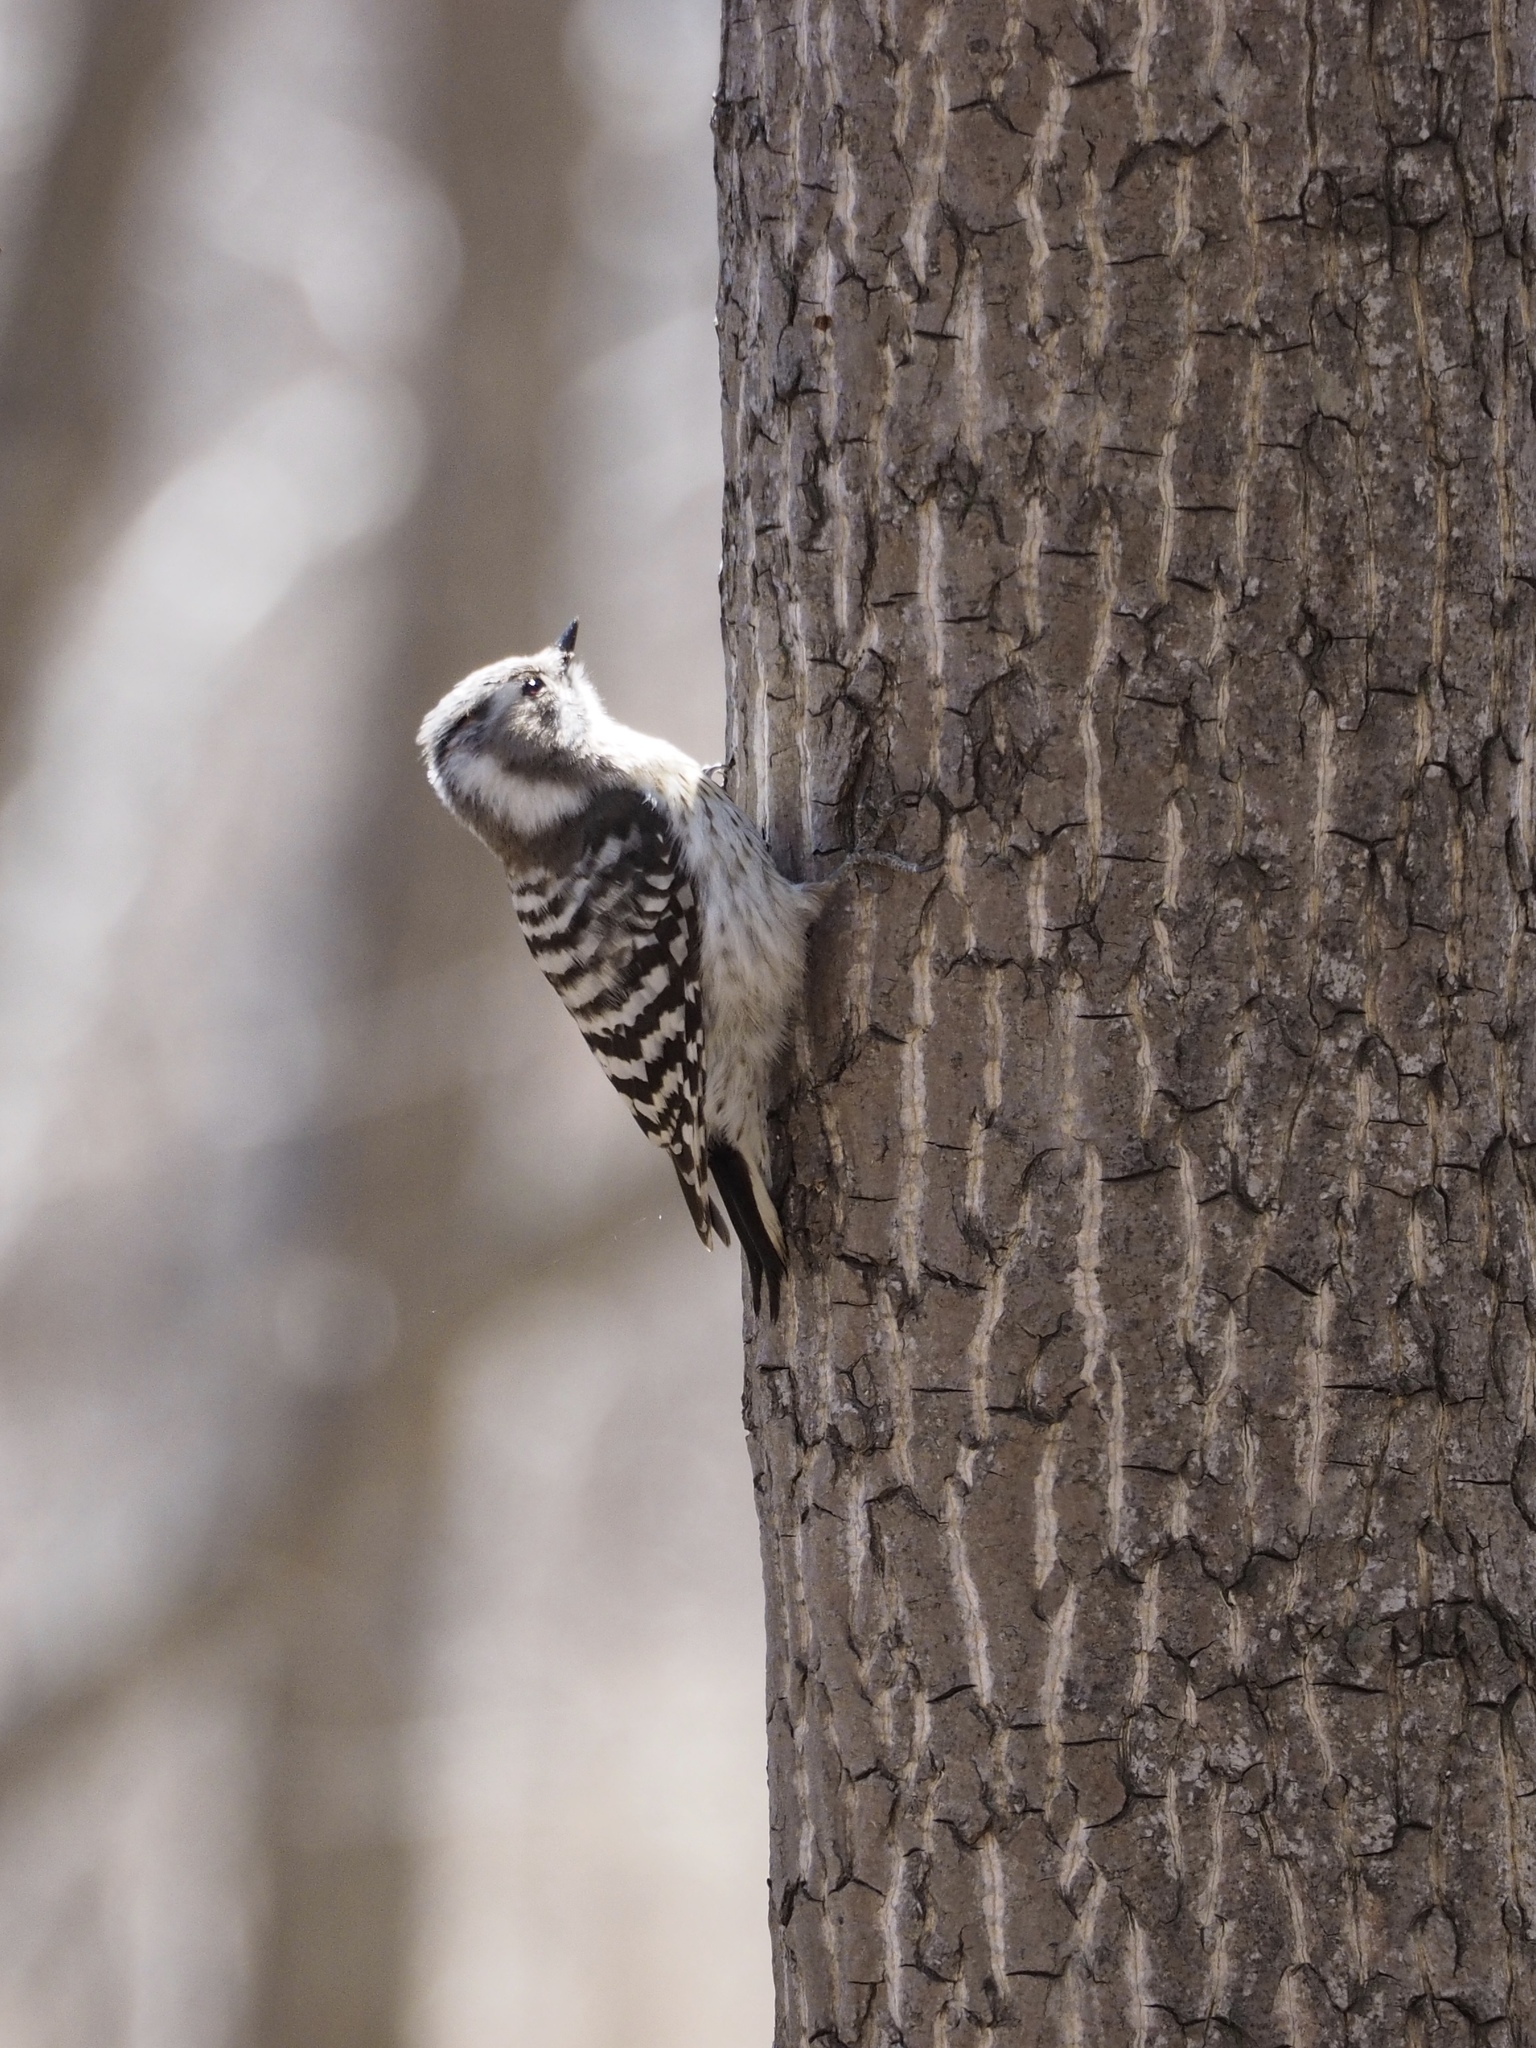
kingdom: Animalia
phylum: Chordata
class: Aves
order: Piciformes
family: Picidae
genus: Yungipicus
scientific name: Yungipicus kizuki
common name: Japanese pygmy woodpecker
